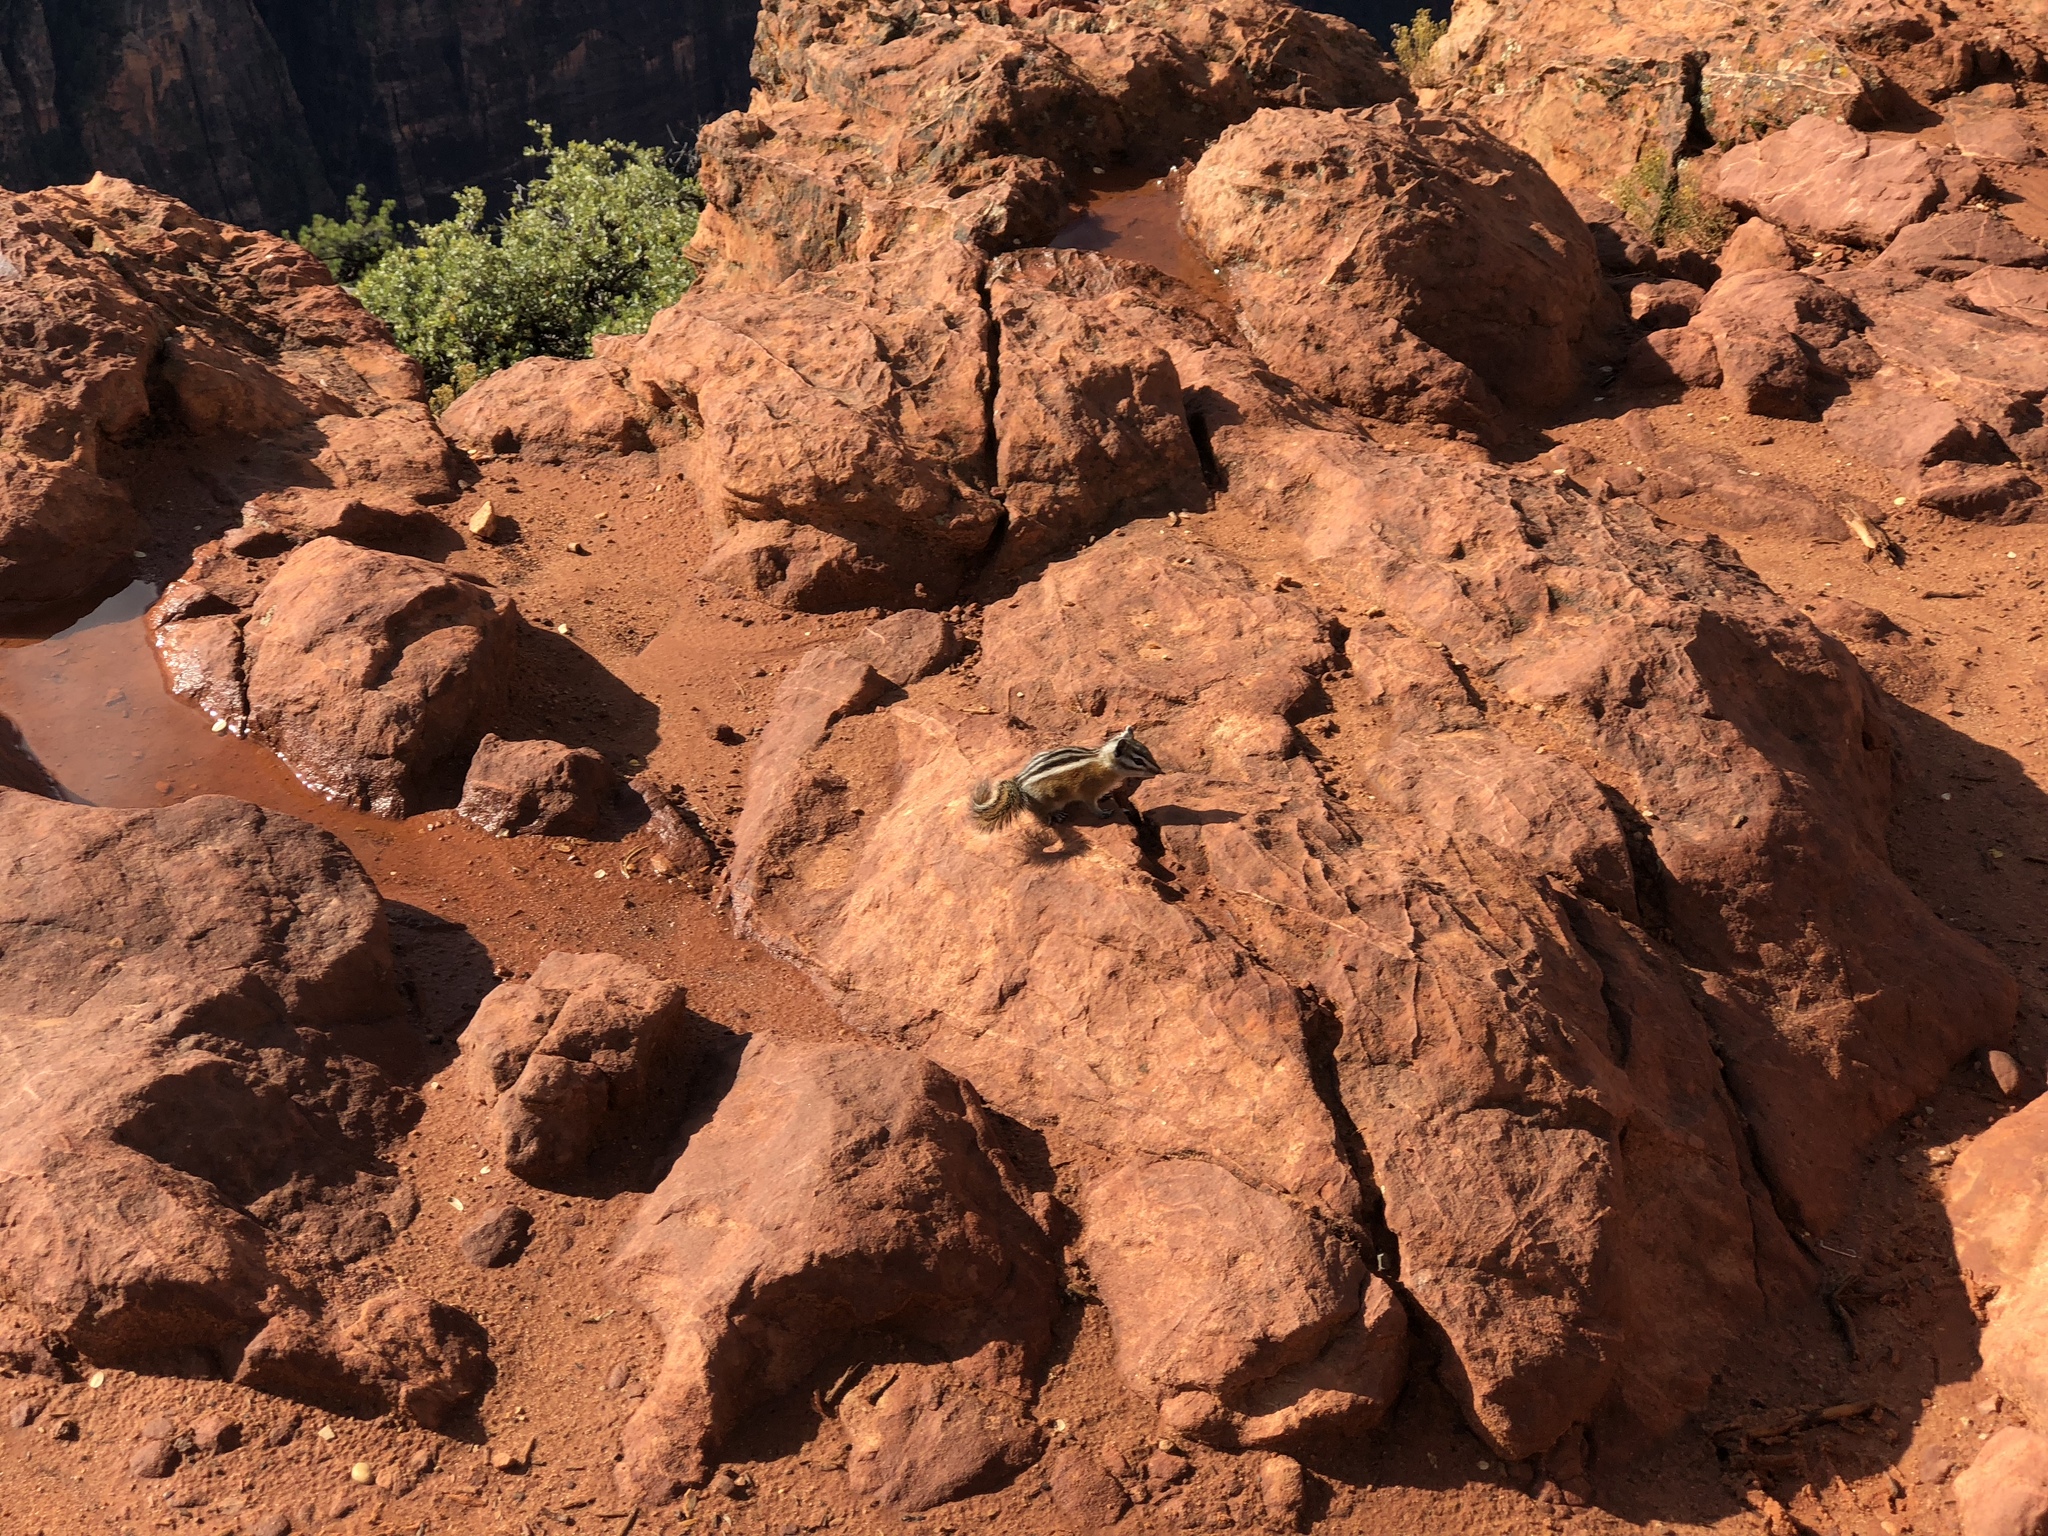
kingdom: Animalia
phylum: Chordata
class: Mammalia
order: Rodentia
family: Sciuridae
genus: Tamias
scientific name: Tamias umbrinus
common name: Uinta chipmunk
